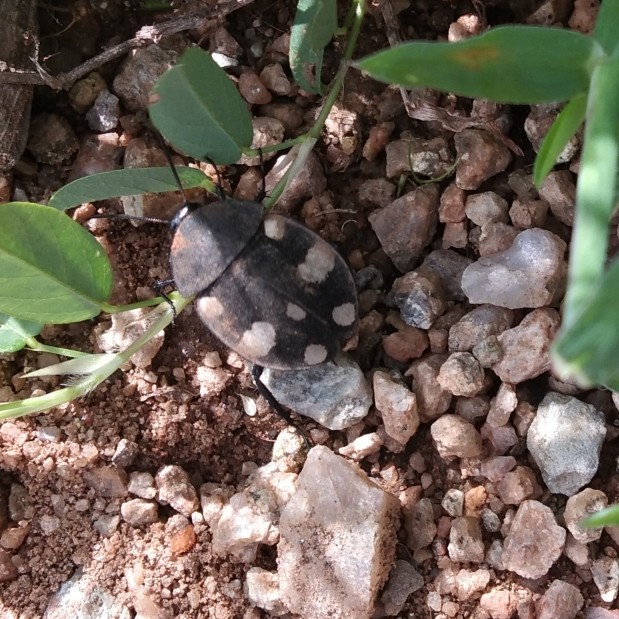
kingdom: Animalia
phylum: Arthropoda
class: Insecta
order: Blattodea
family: Corydiidae
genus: Therea
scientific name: Therea petiveriana
